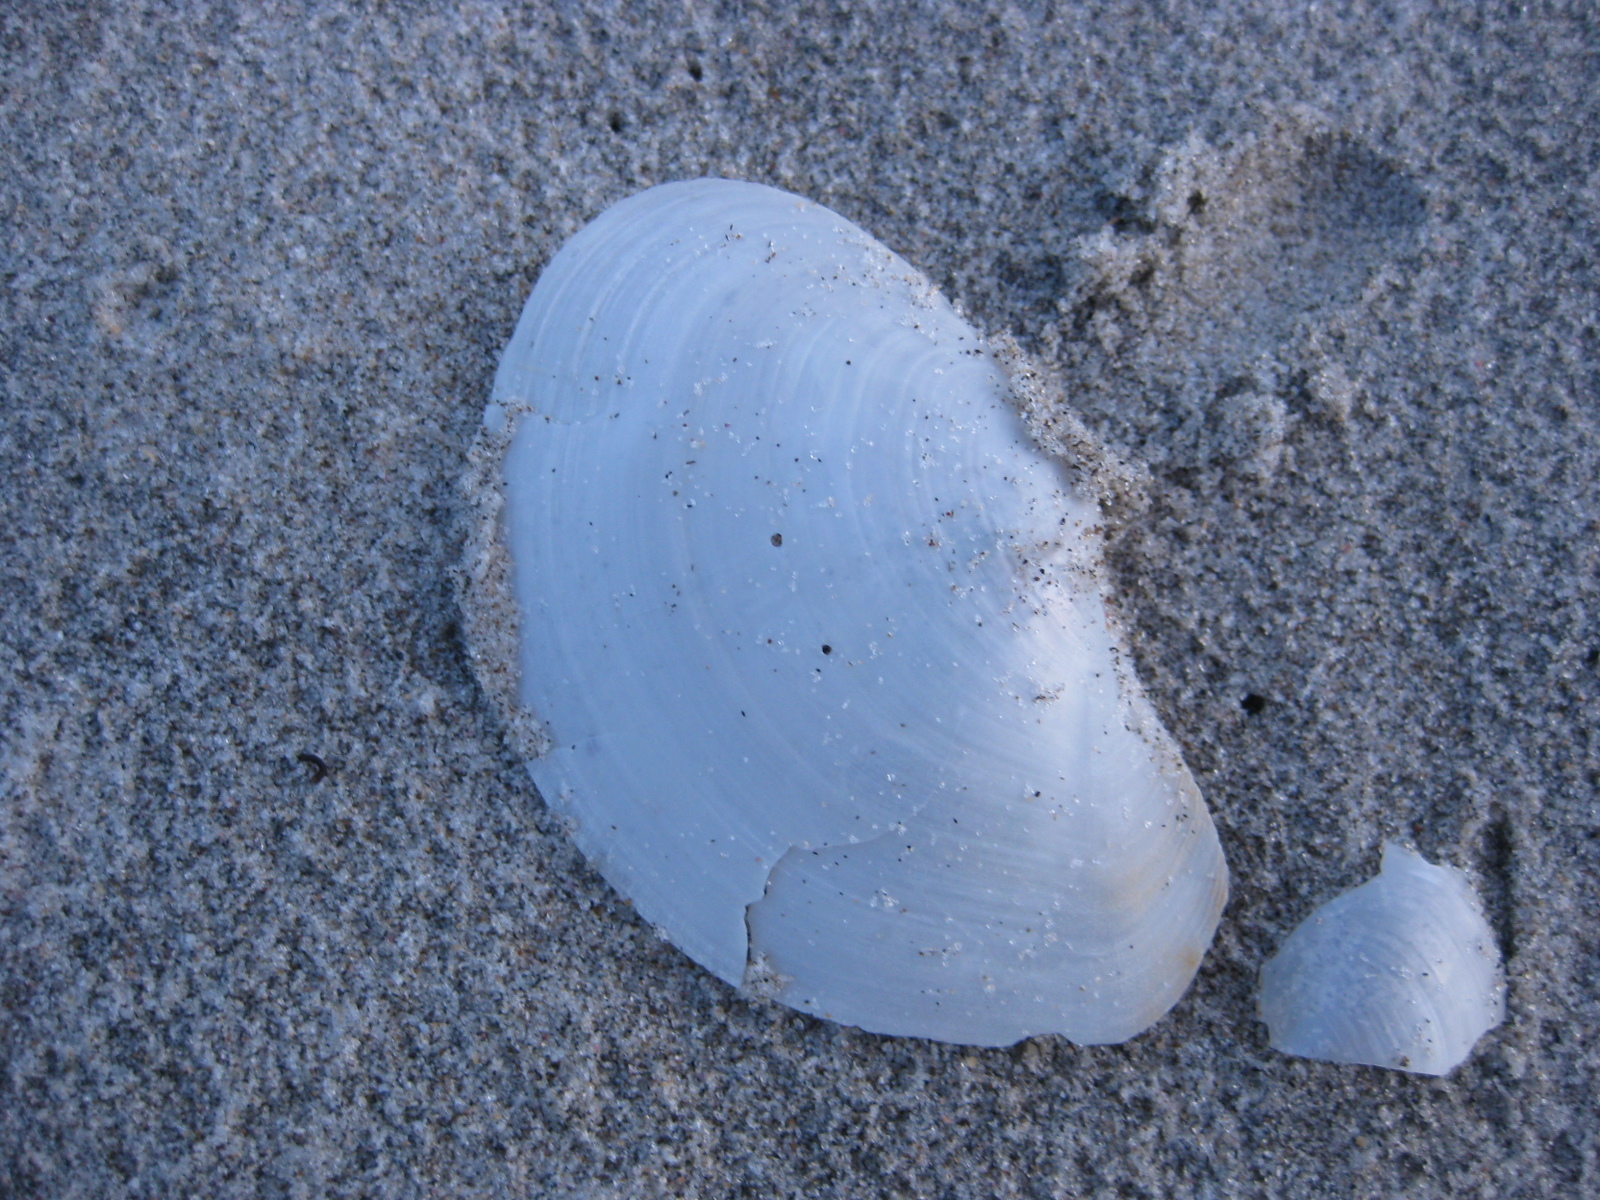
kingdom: Animalia
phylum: Mollusca
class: Bivalvia
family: Periplomatidae
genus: Offadesma
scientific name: Offadesma angasi
